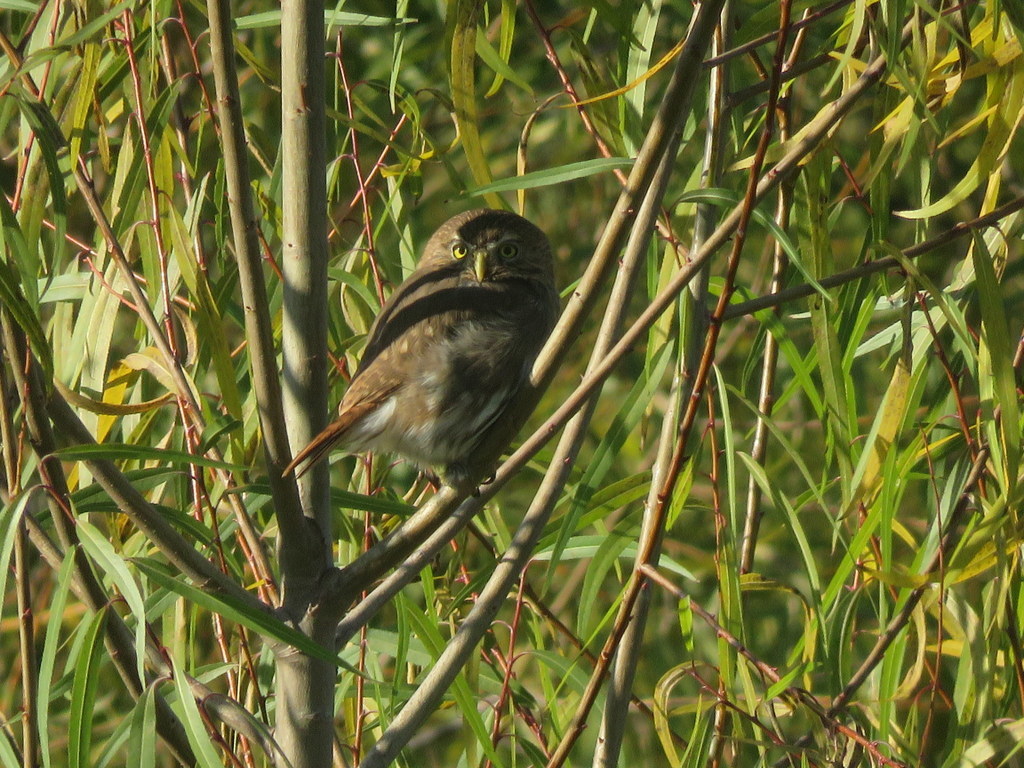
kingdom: Animalia
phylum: Chordata
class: Aves
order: Strigiformes
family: Strigidae
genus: Glaucidium
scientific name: Glaucidium brasilianum
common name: Ferruginous pygmy-owl
